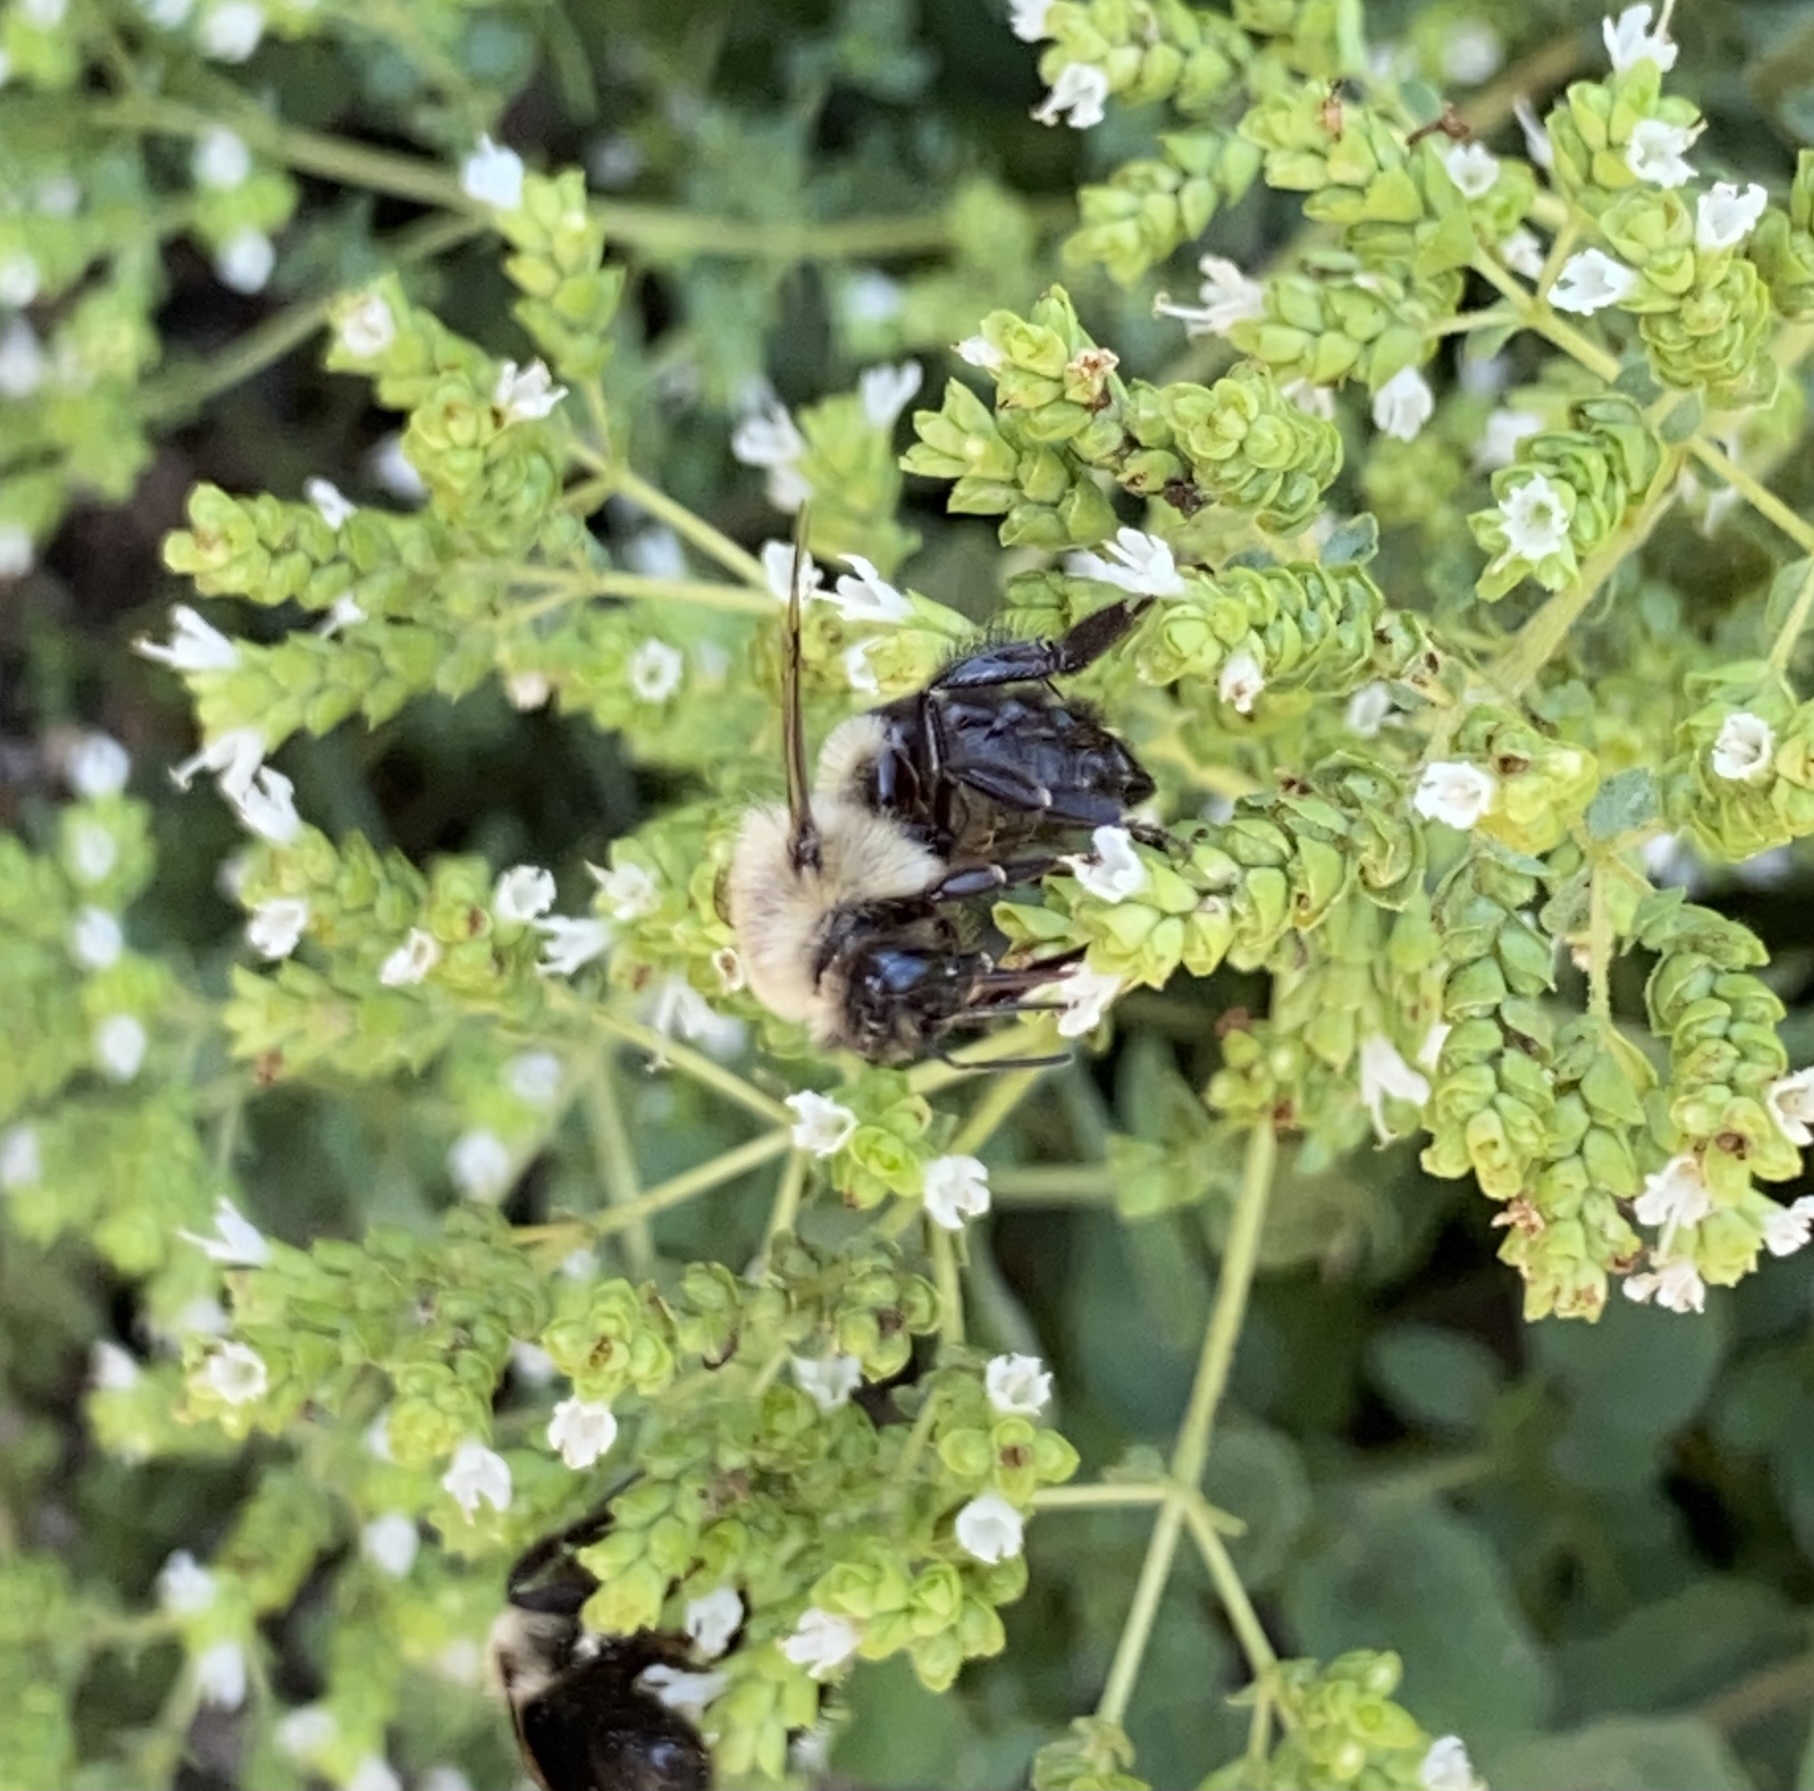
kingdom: Animalia
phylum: Arthropoda
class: Insecta
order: Hymenoptera
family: Apidae
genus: Bombus
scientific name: Bombus impatiens
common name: Common eastern bumble bee
